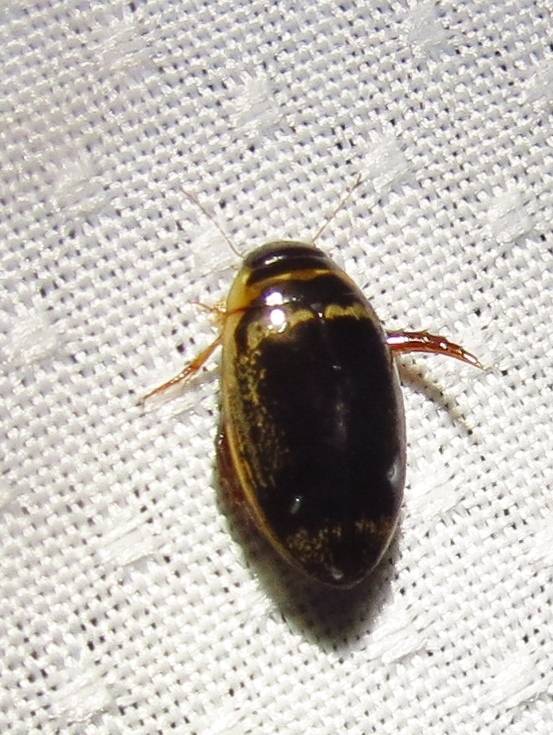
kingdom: Animalia
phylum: Arthropoda
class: Insecta
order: Coleoptera
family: Dytiscidae
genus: Thermonectus
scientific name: Thermonectus basillaris
